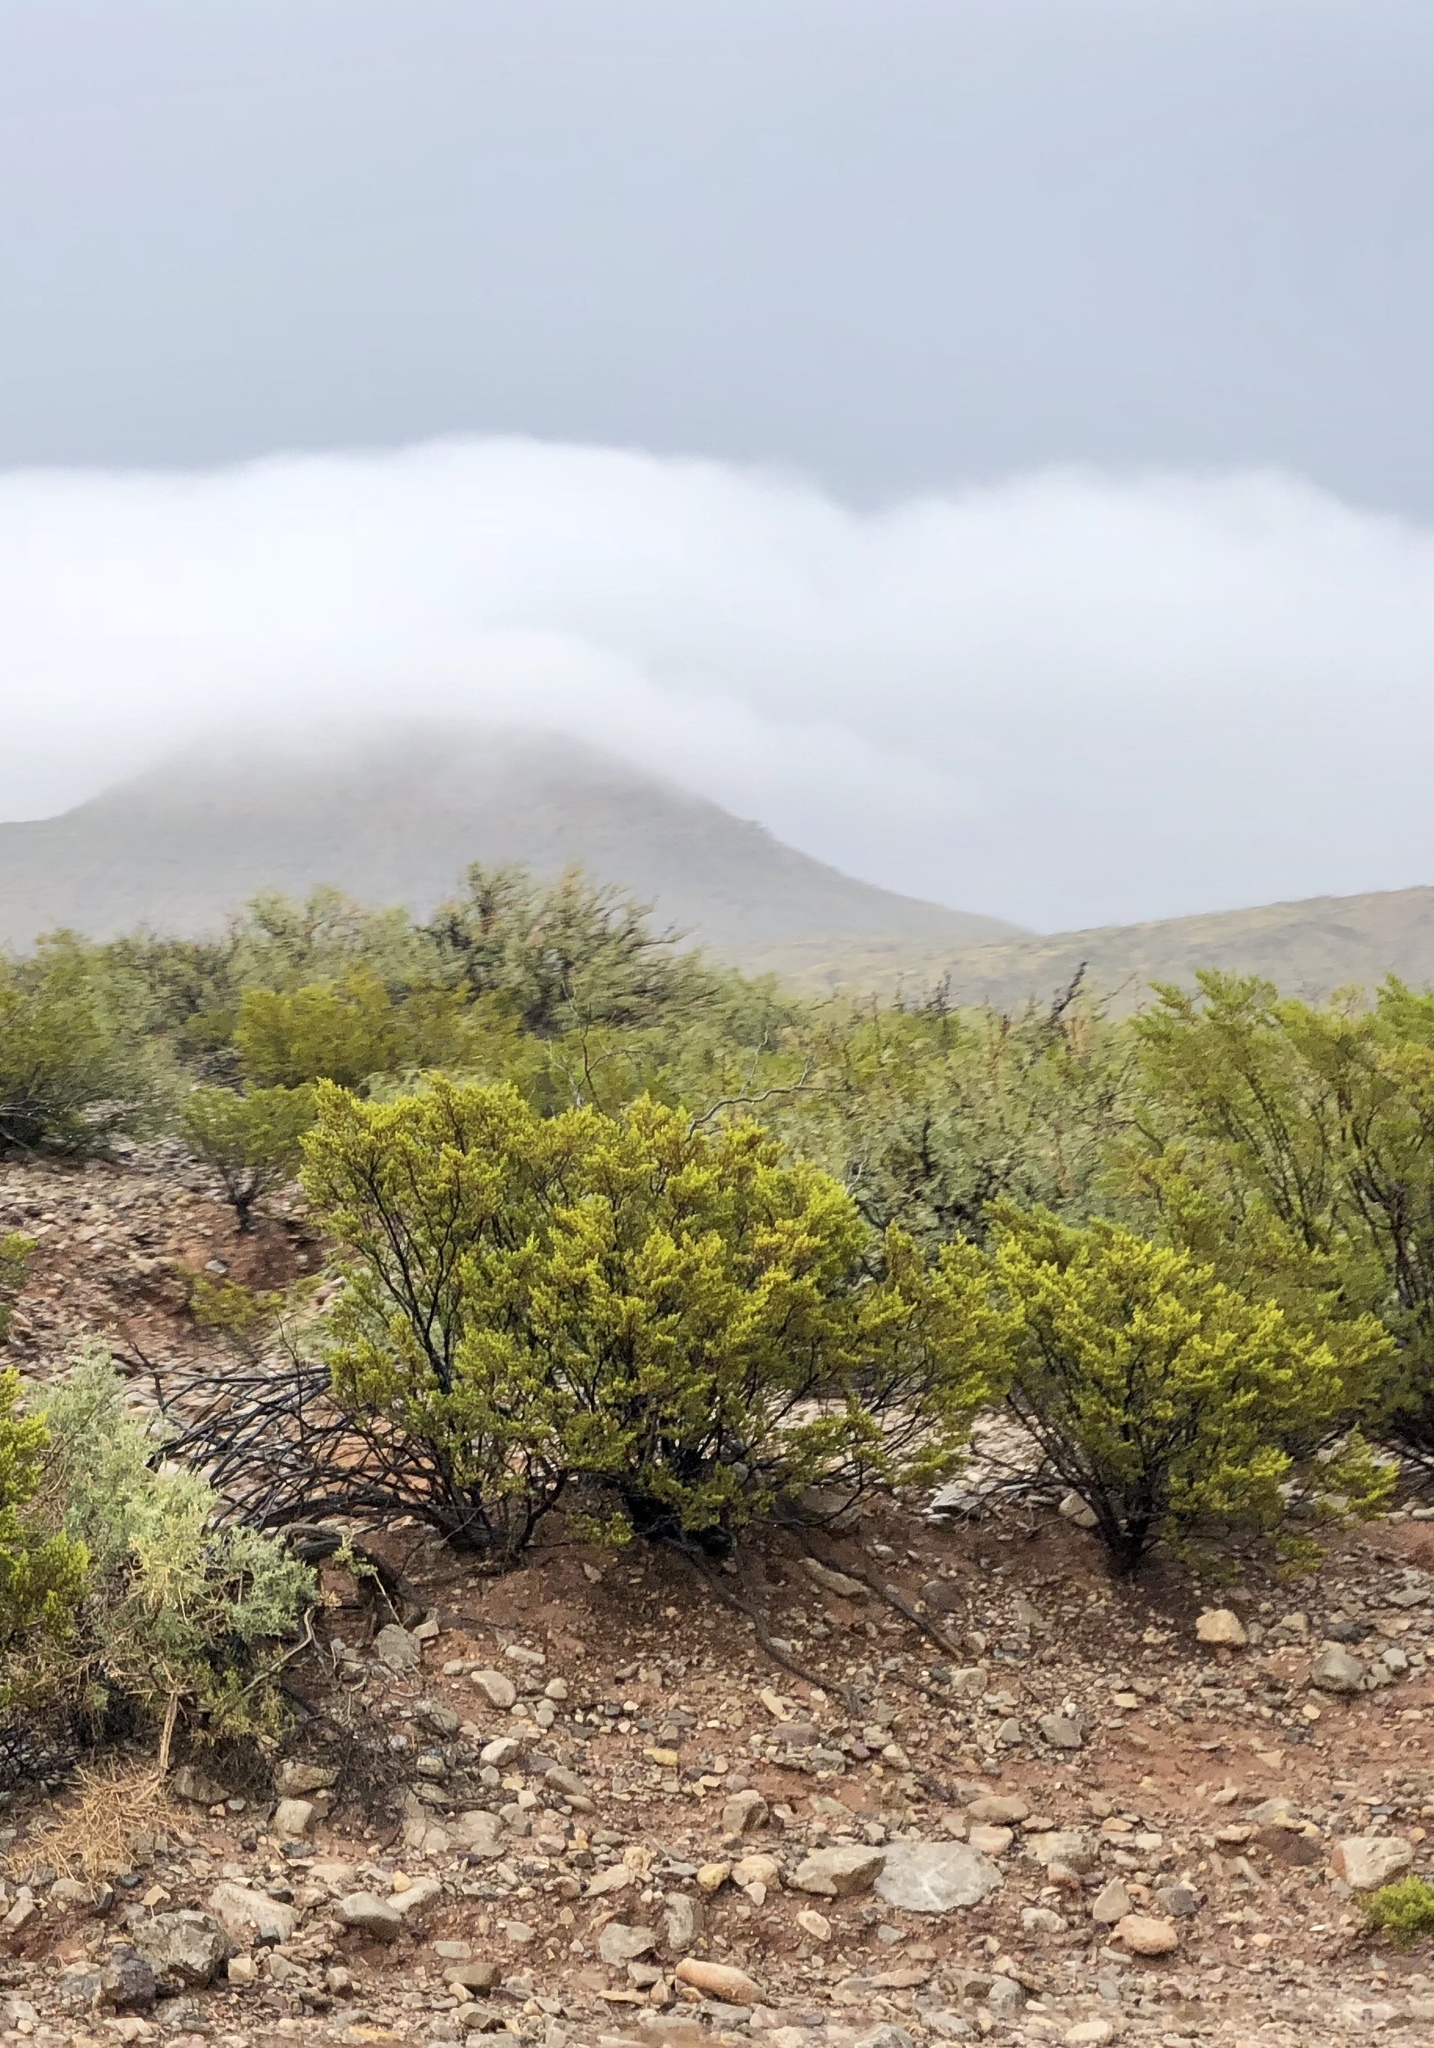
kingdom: Plantae
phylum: Tracheophyta
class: Magnoliopsida
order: Zygophyllales
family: Zygophyllaceae
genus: Larrea
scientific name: Larrea tridentata
